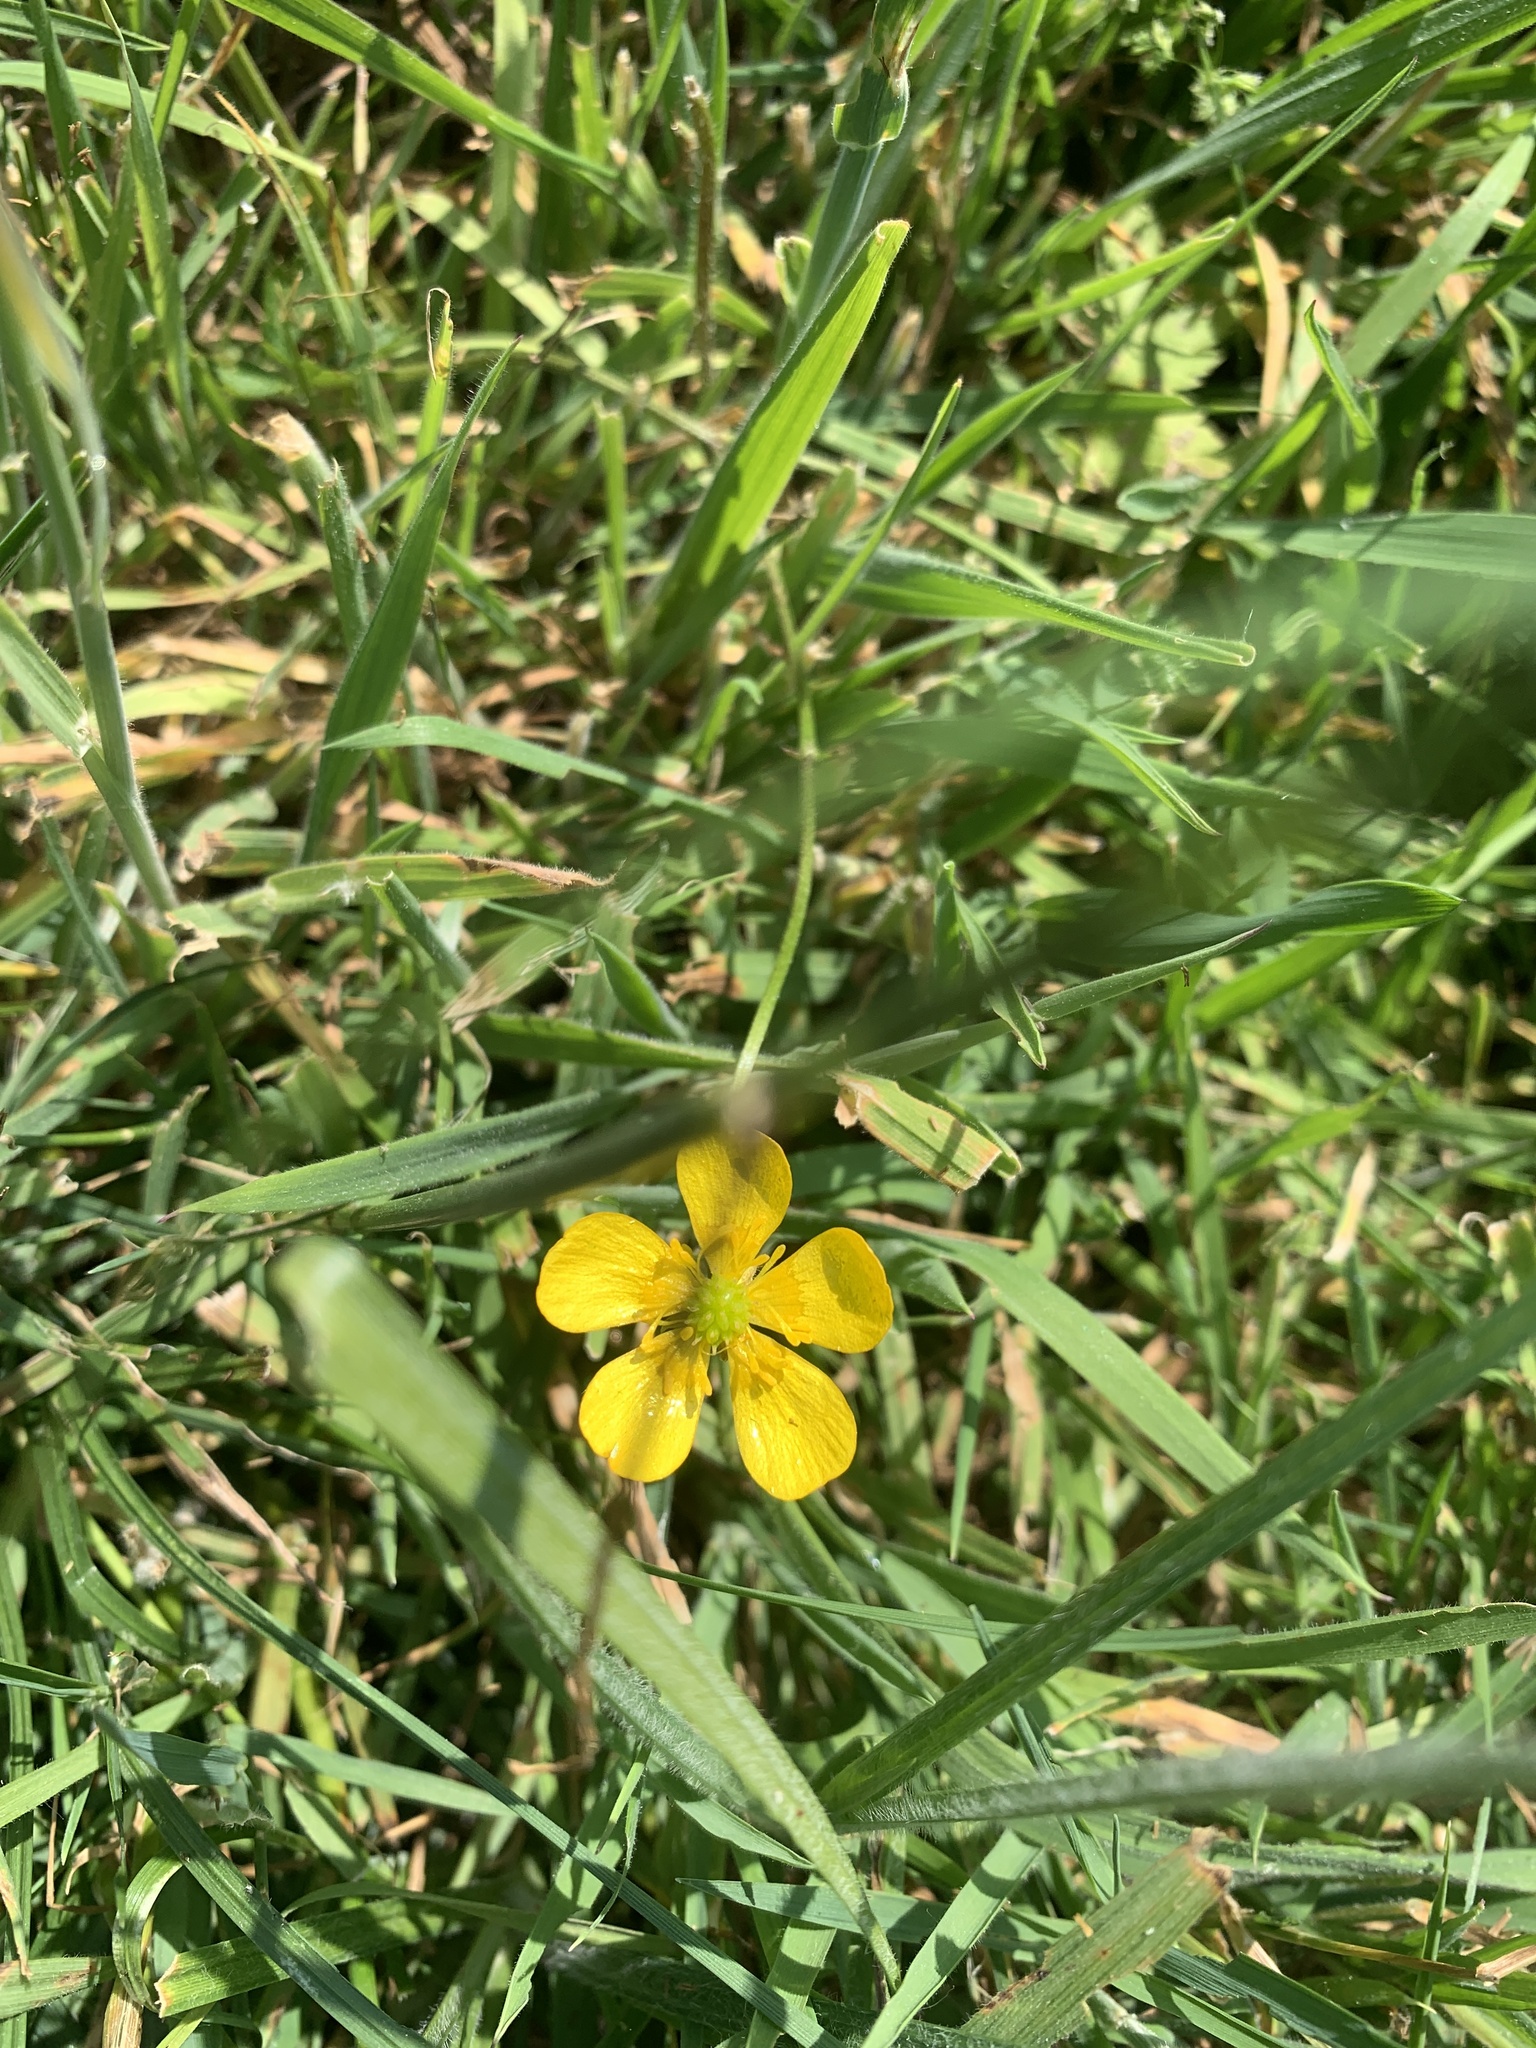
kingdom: Plantae
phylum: Tracheophyta
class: Magnoliopsida
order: Rosales
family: Rosaceae
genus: Potentilla
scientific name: Potentilla erecta
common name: Tormentil
